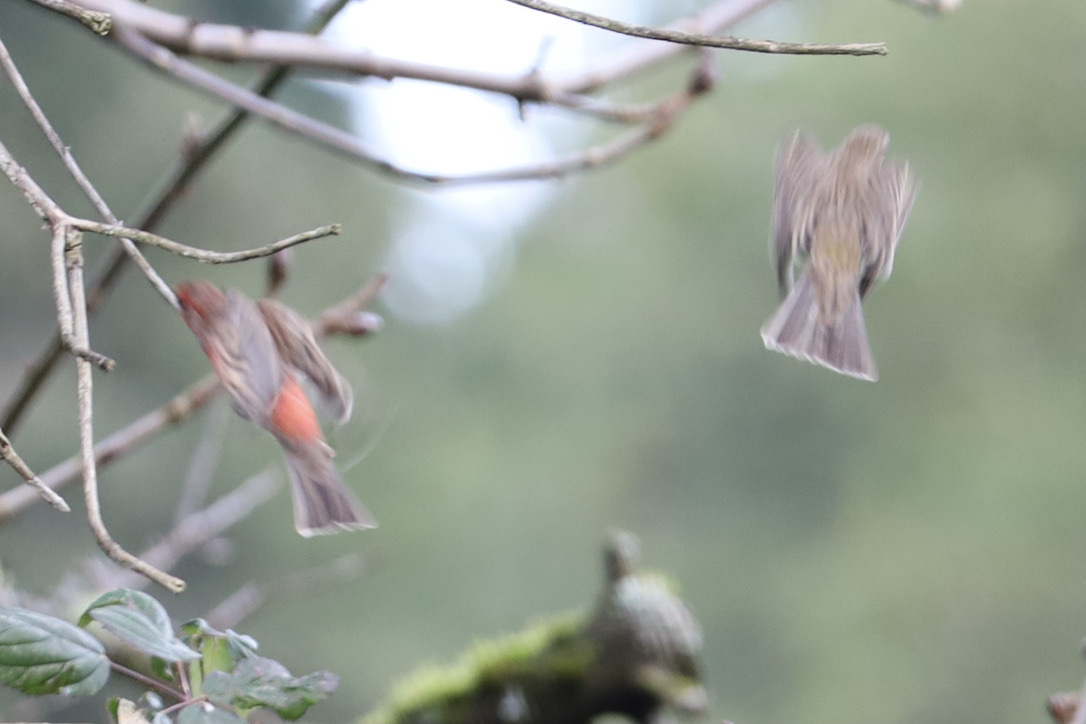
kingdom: Animalia
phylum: Chordata
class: Aves
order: Passeriformes
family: Fringillidae
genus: Haemorhous
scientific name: Haemorhous mexicanus
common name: House finch
